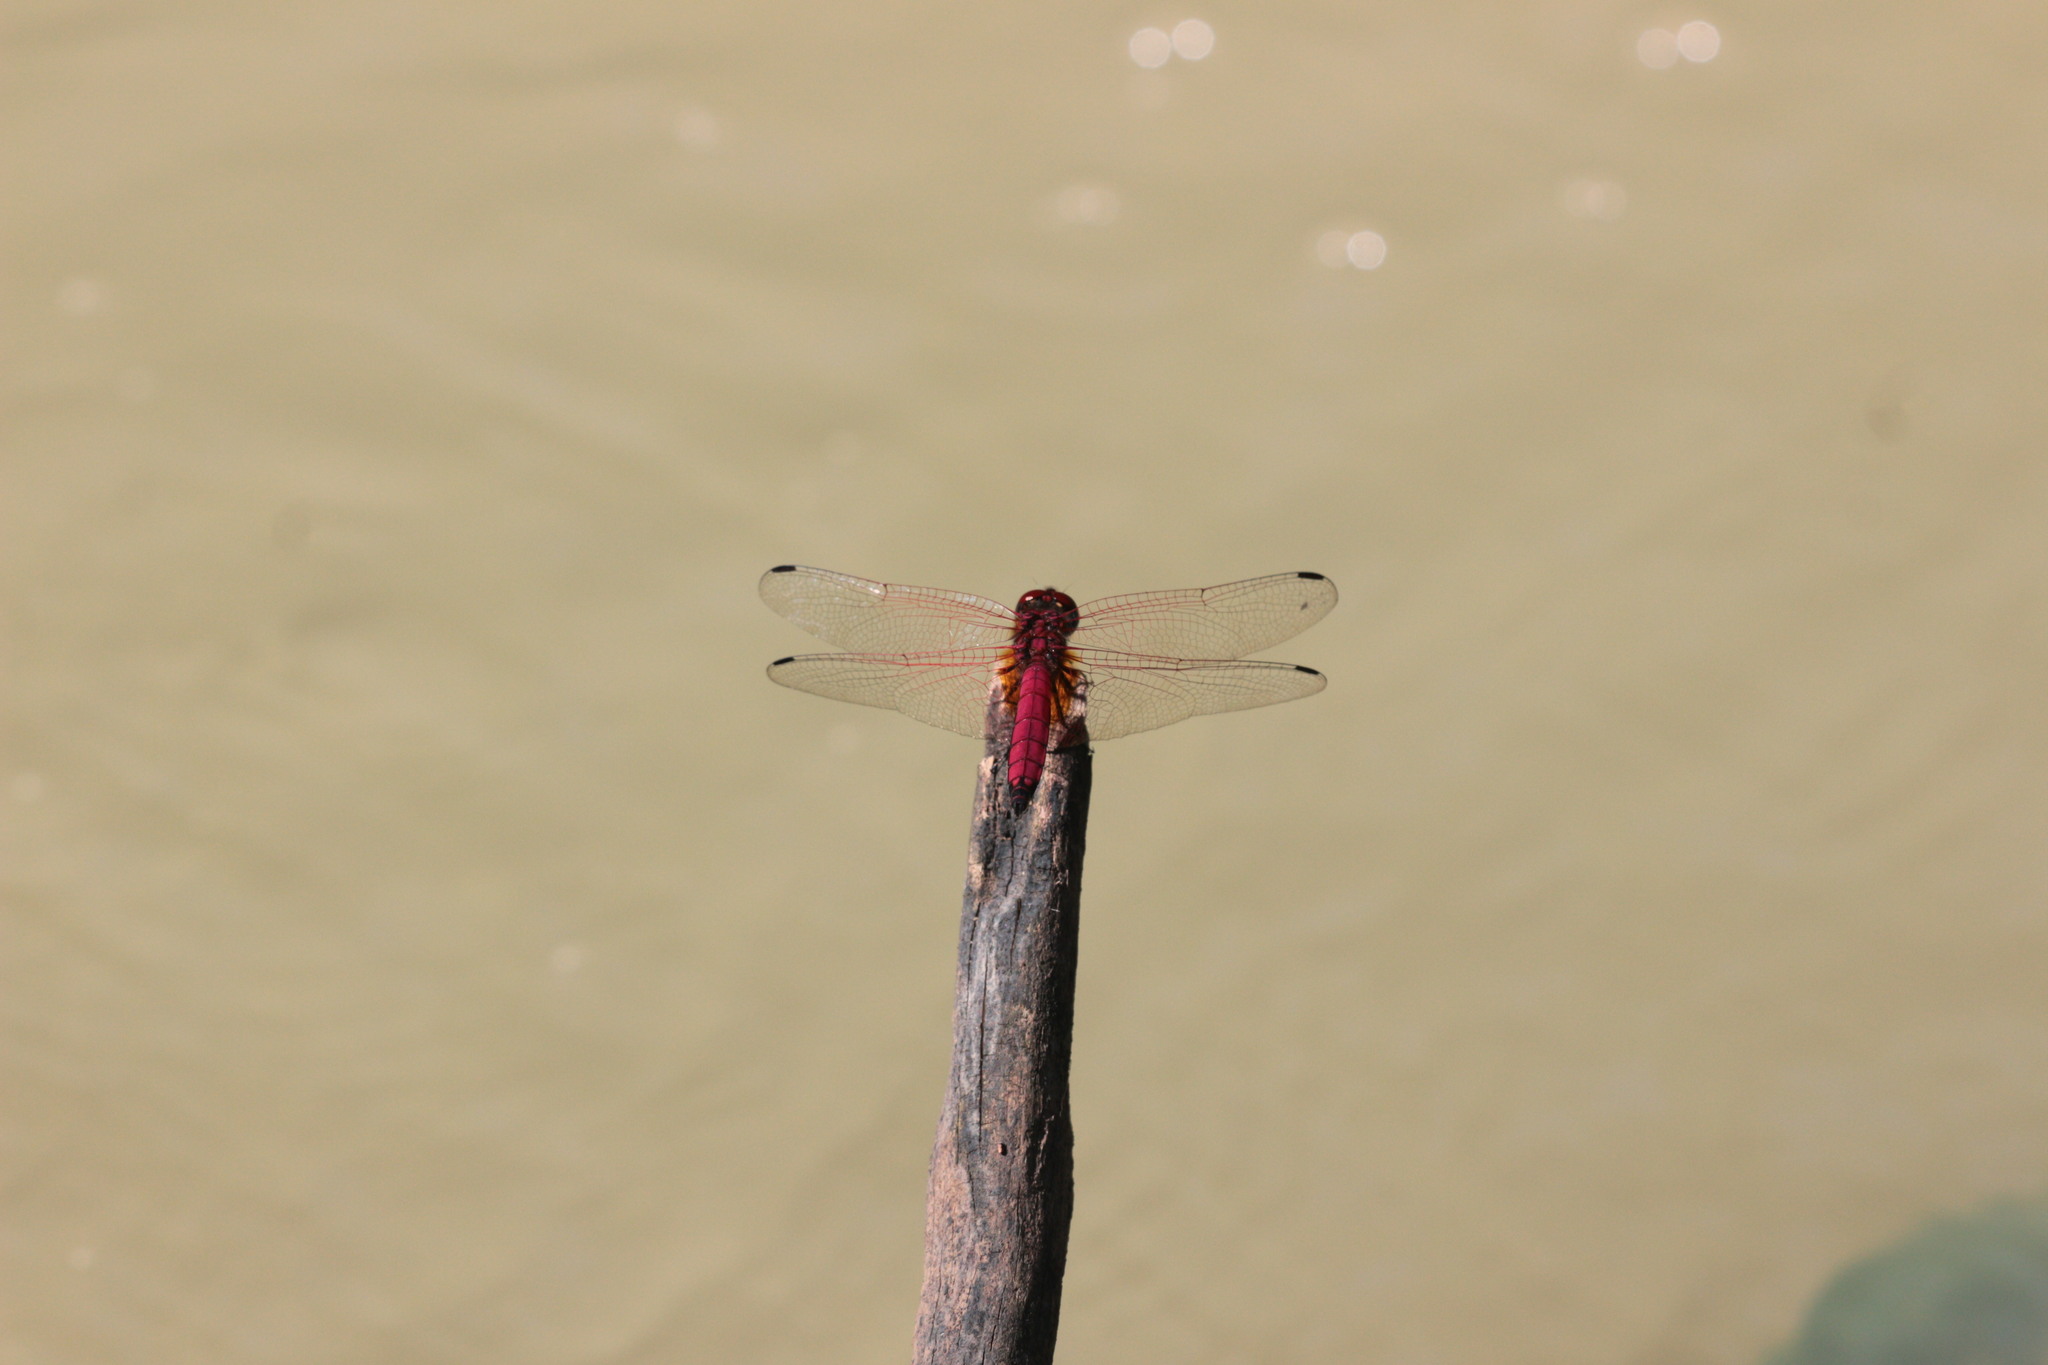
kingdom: Animalia
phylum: Arthropoda
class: Insecta
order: Odonata
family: Libellulidae
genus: Trithemis
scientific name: Trithemis selika
